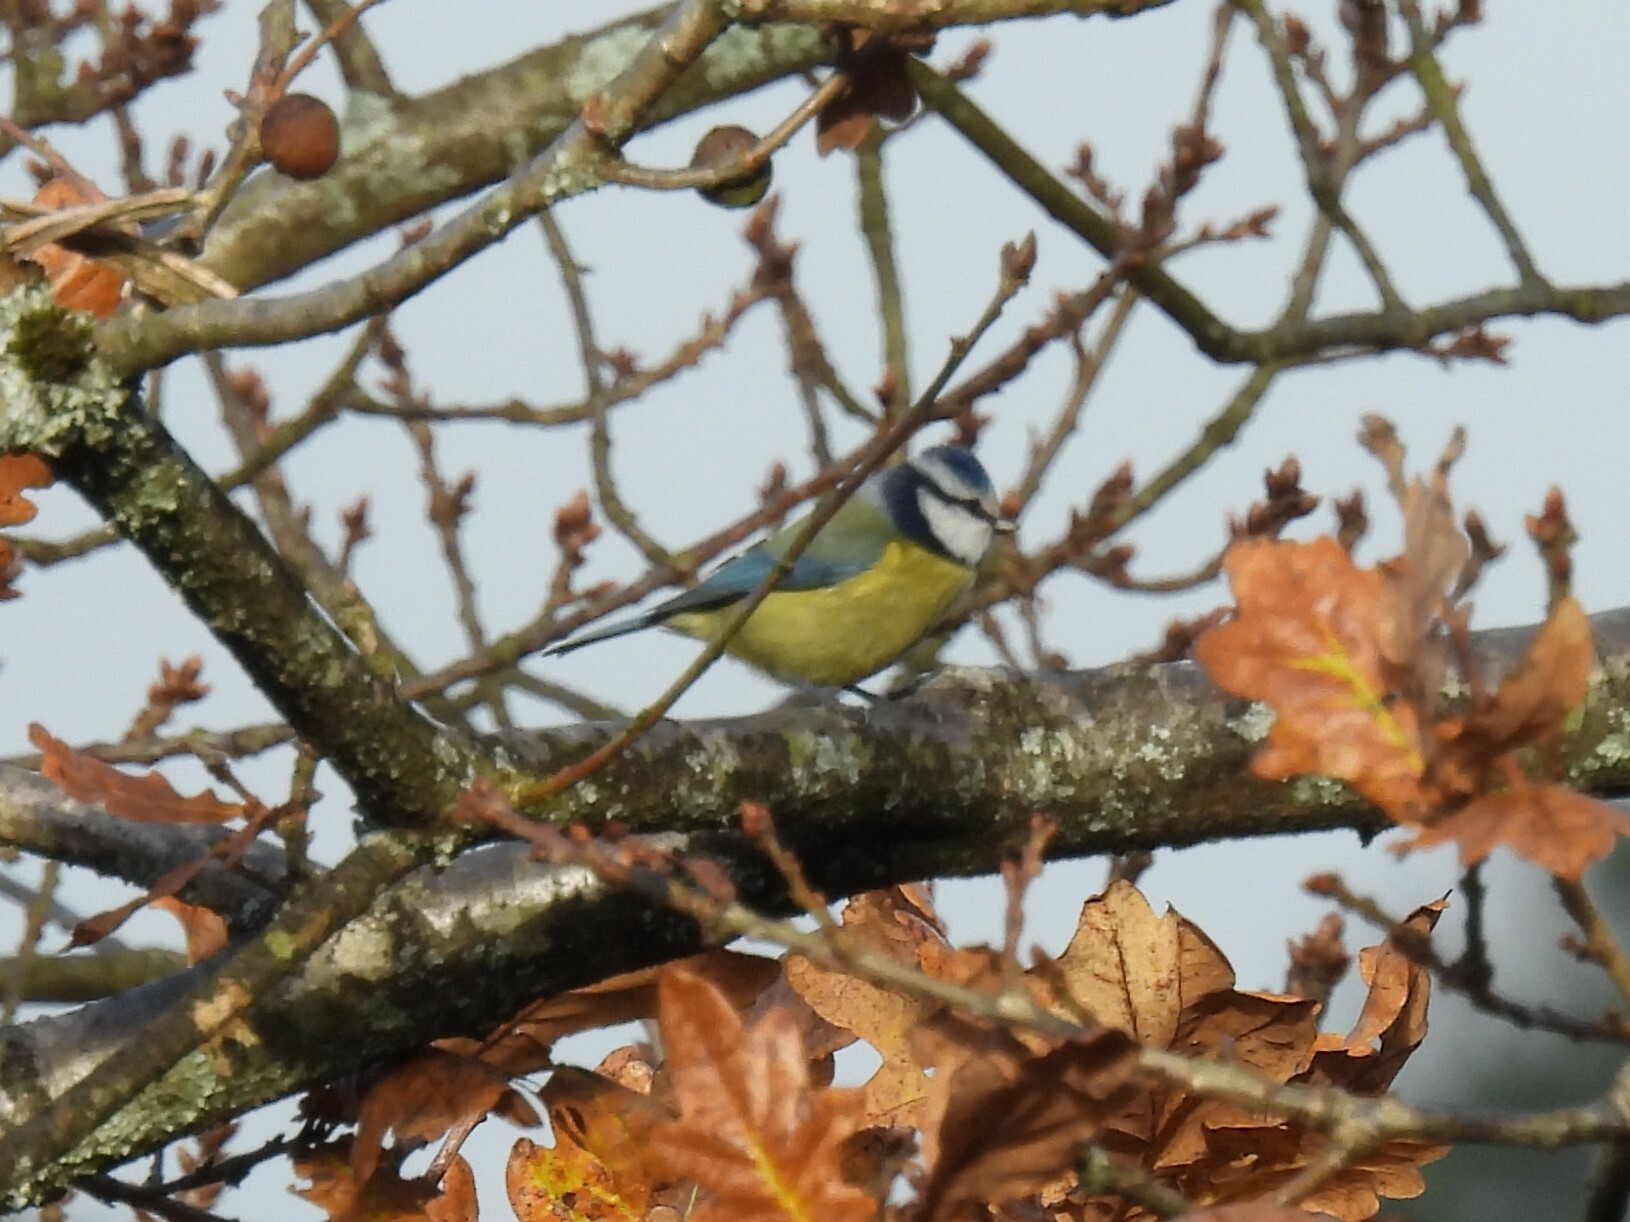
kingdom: Animalia
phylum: Chordata
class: Aves
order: Passeriformes
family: Paridae
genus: Cyanistes
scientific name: Cyanistes caeruleus
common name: Eurasian blue tit
